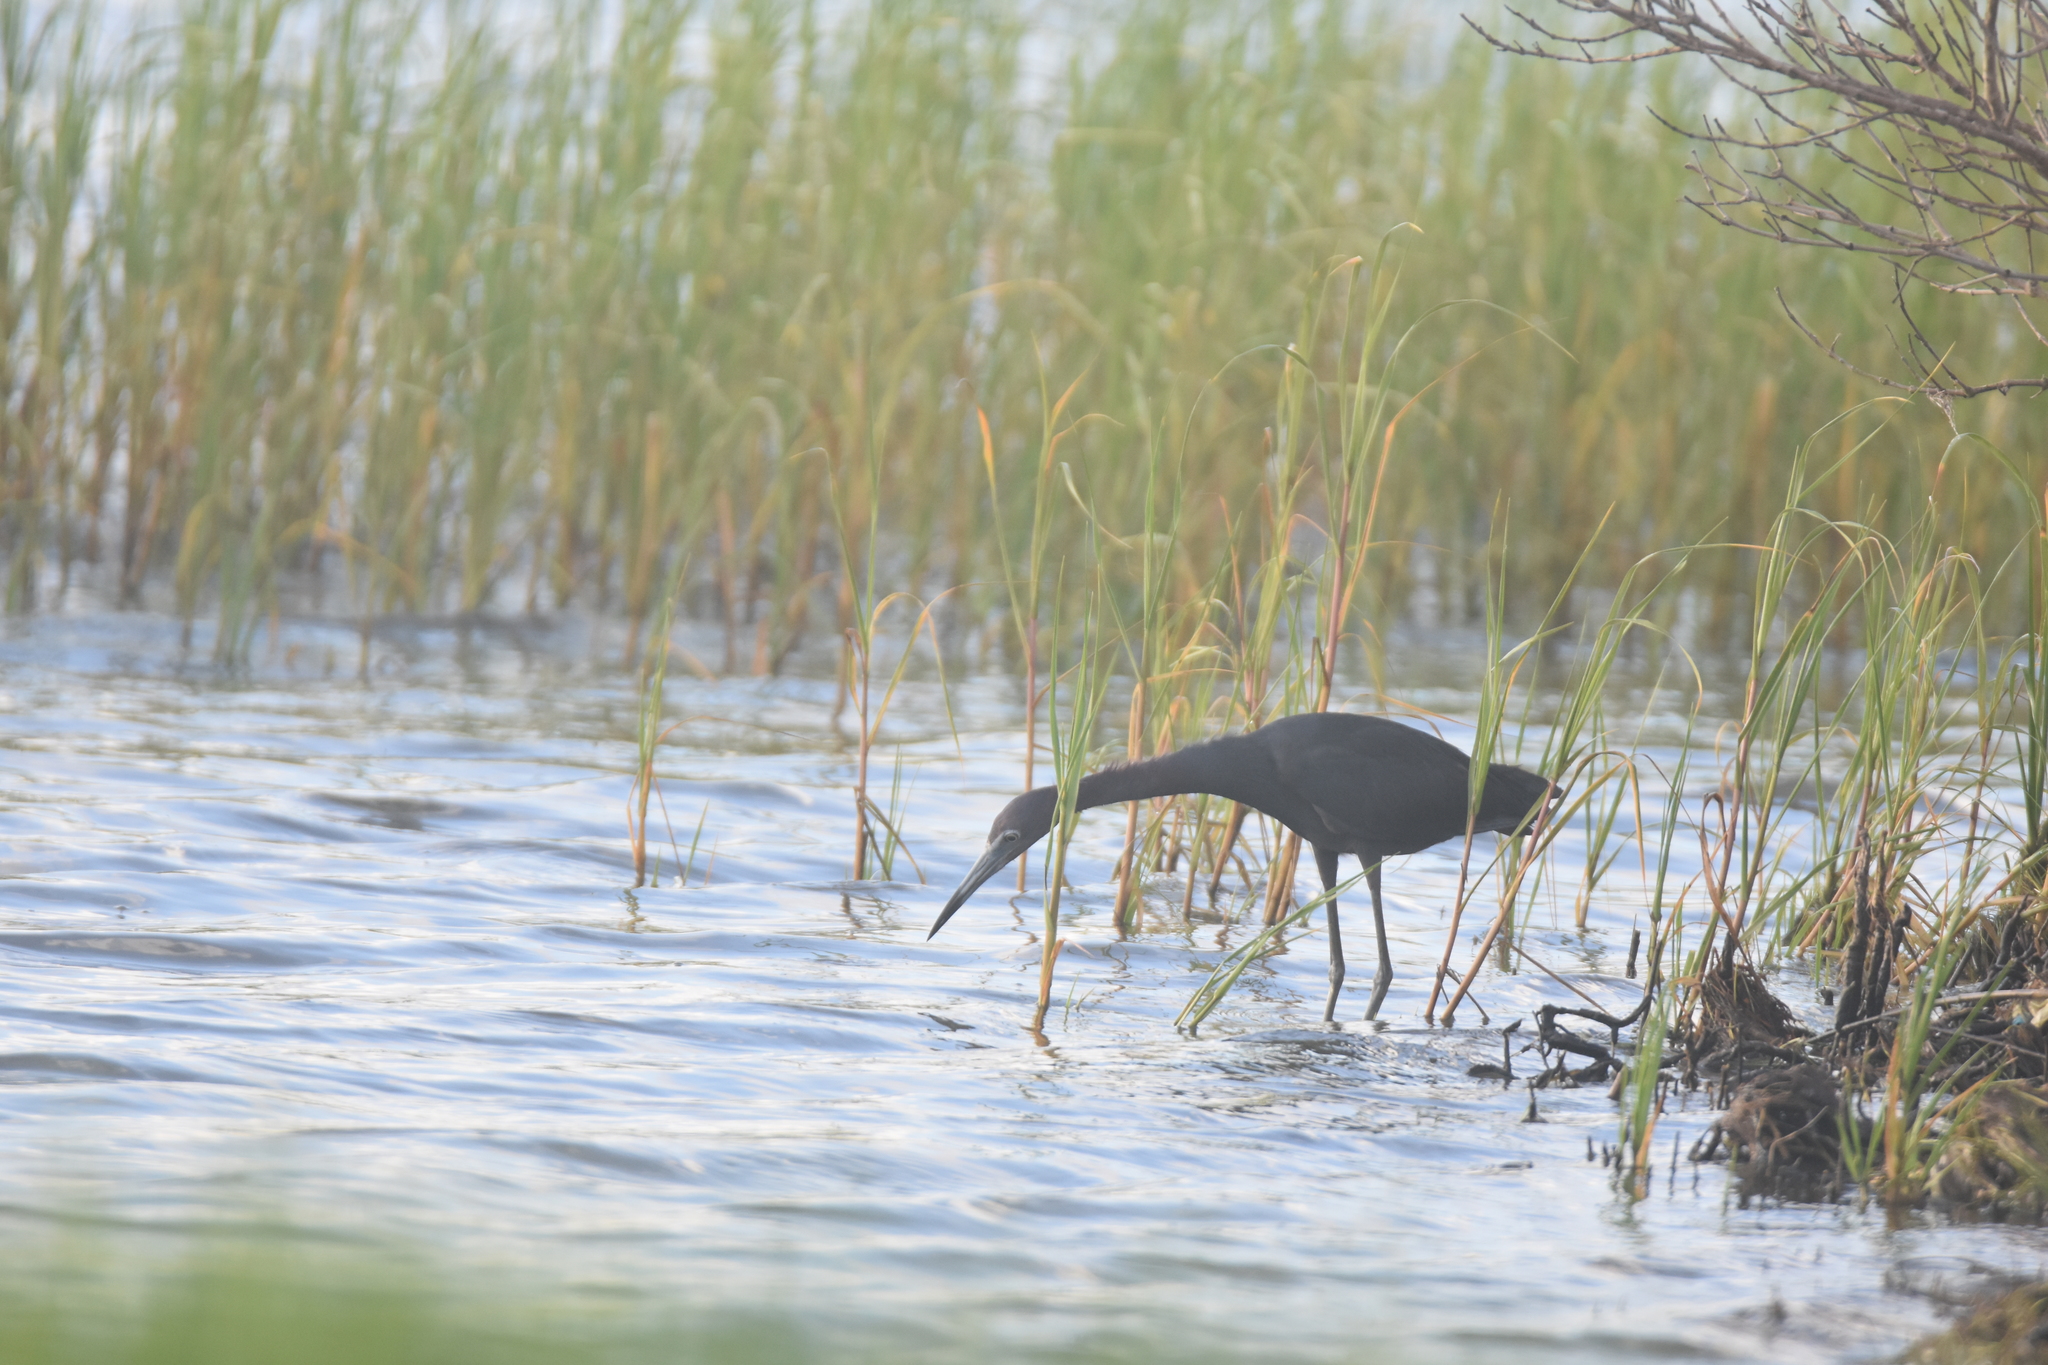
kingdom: Animalia
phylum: Chordata
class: Aves
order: Pelecaniformes
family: Ardeidae
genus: Egretta
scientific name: Egretta caerulea
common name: Little blue heron
